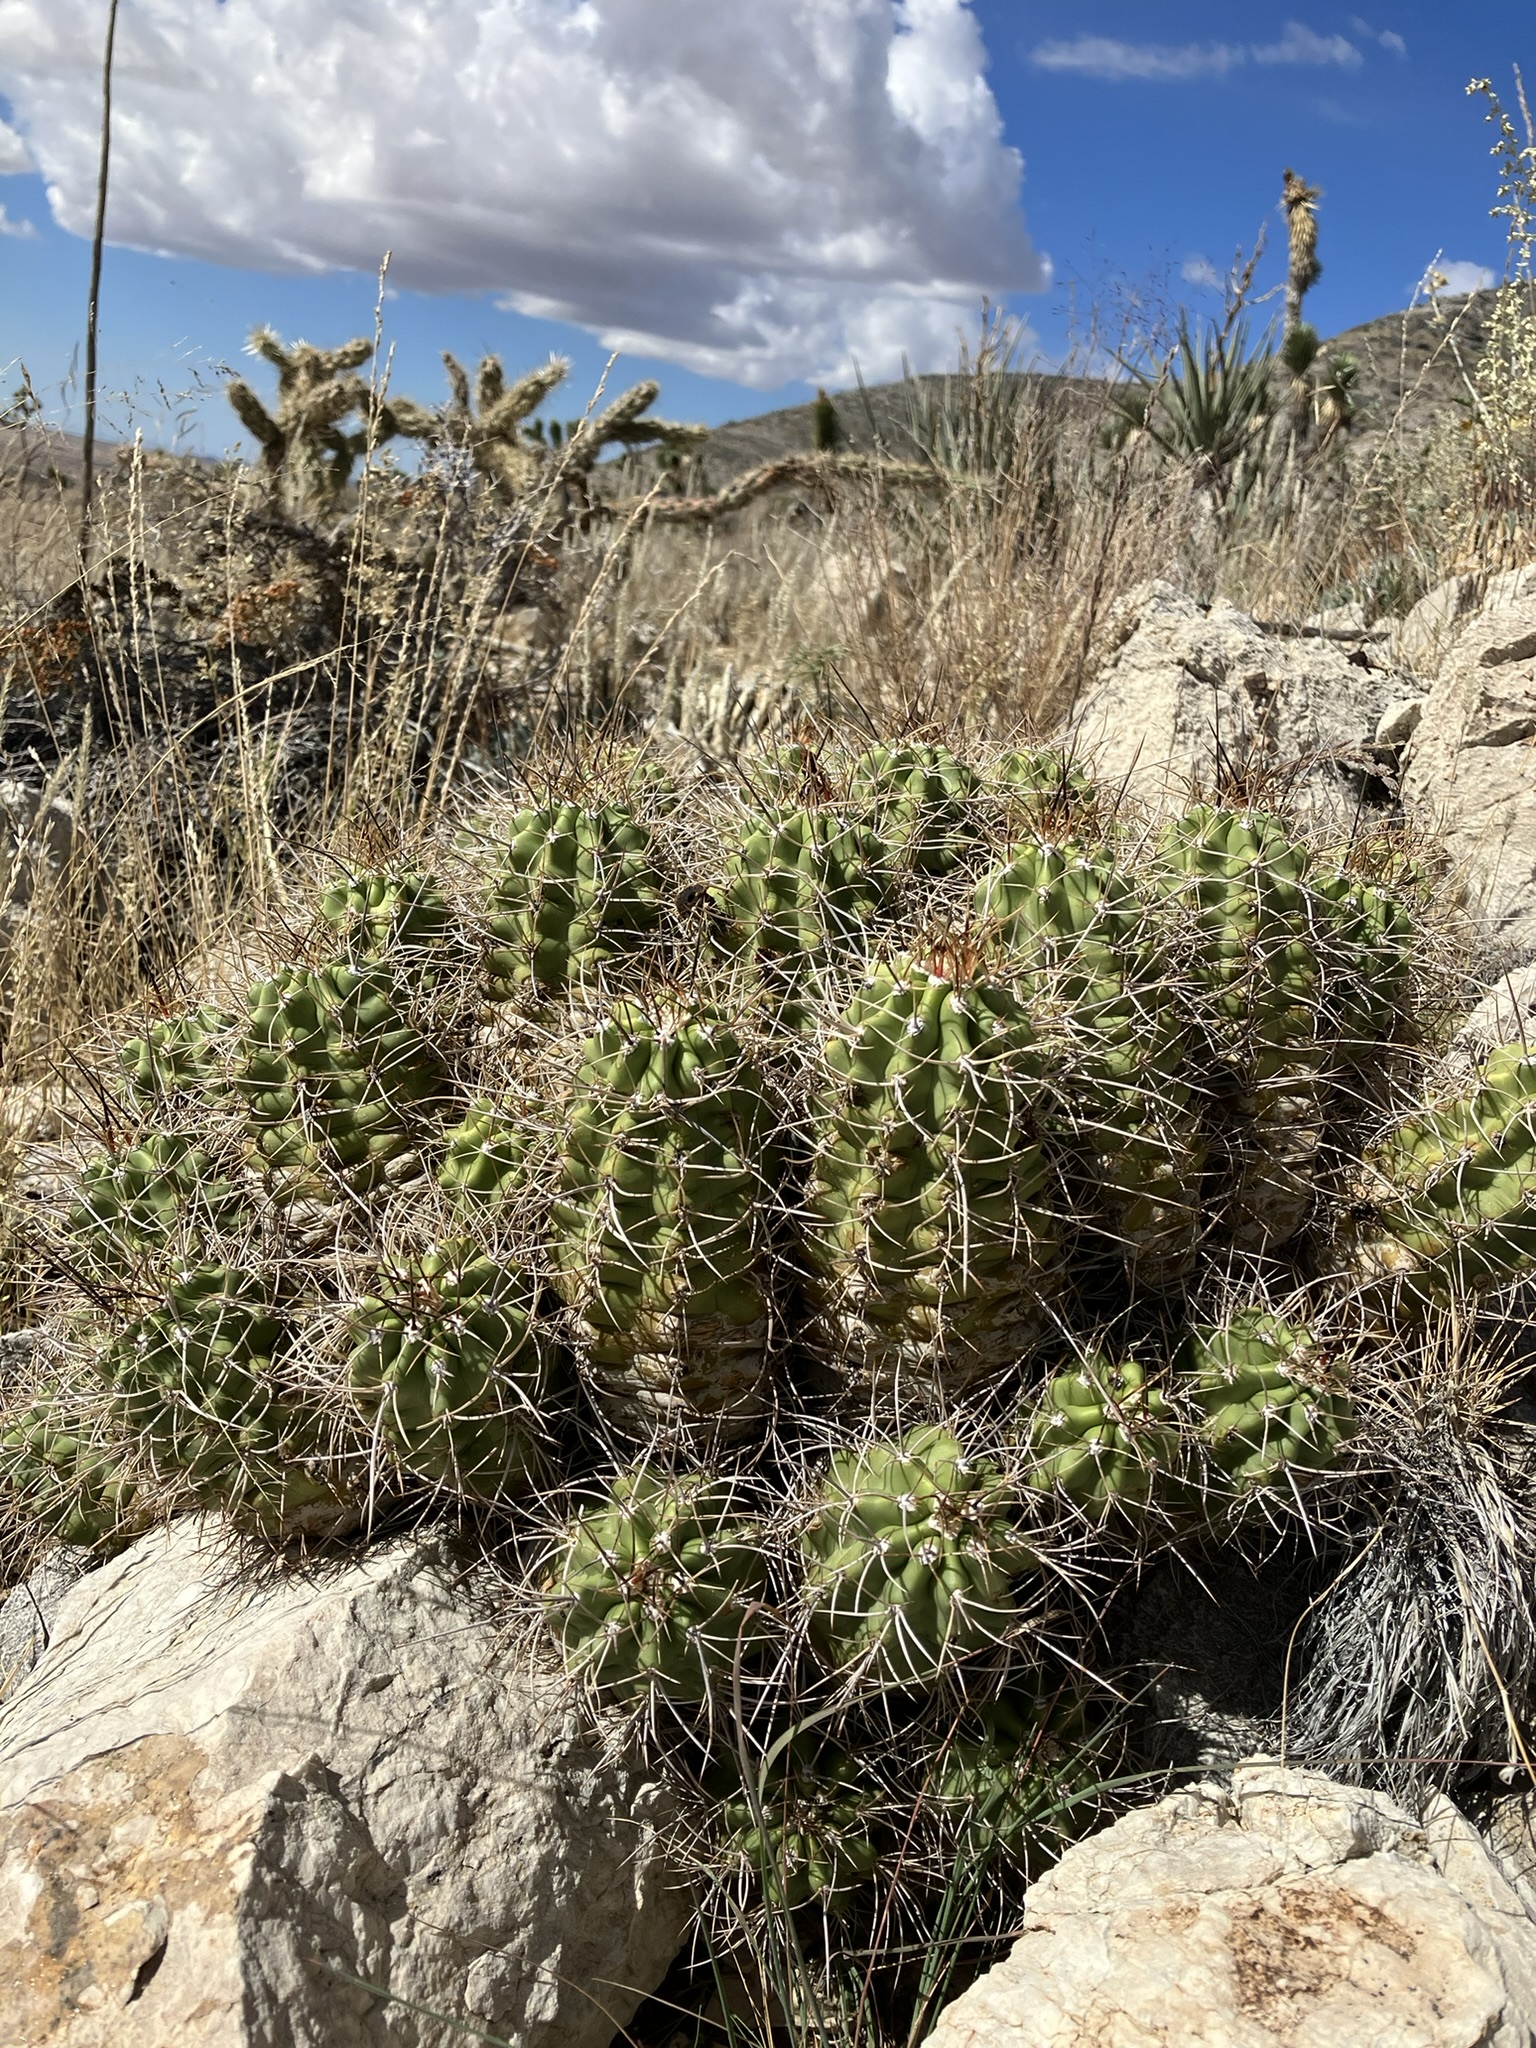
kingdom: Plantae
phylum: Tracheophyta
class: Magnoliopsida
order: Caryophyllales
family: Cactaceae
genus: Echinocereus
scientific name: Echinocereus triglochidiatus
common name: Claretcup hedgehog
